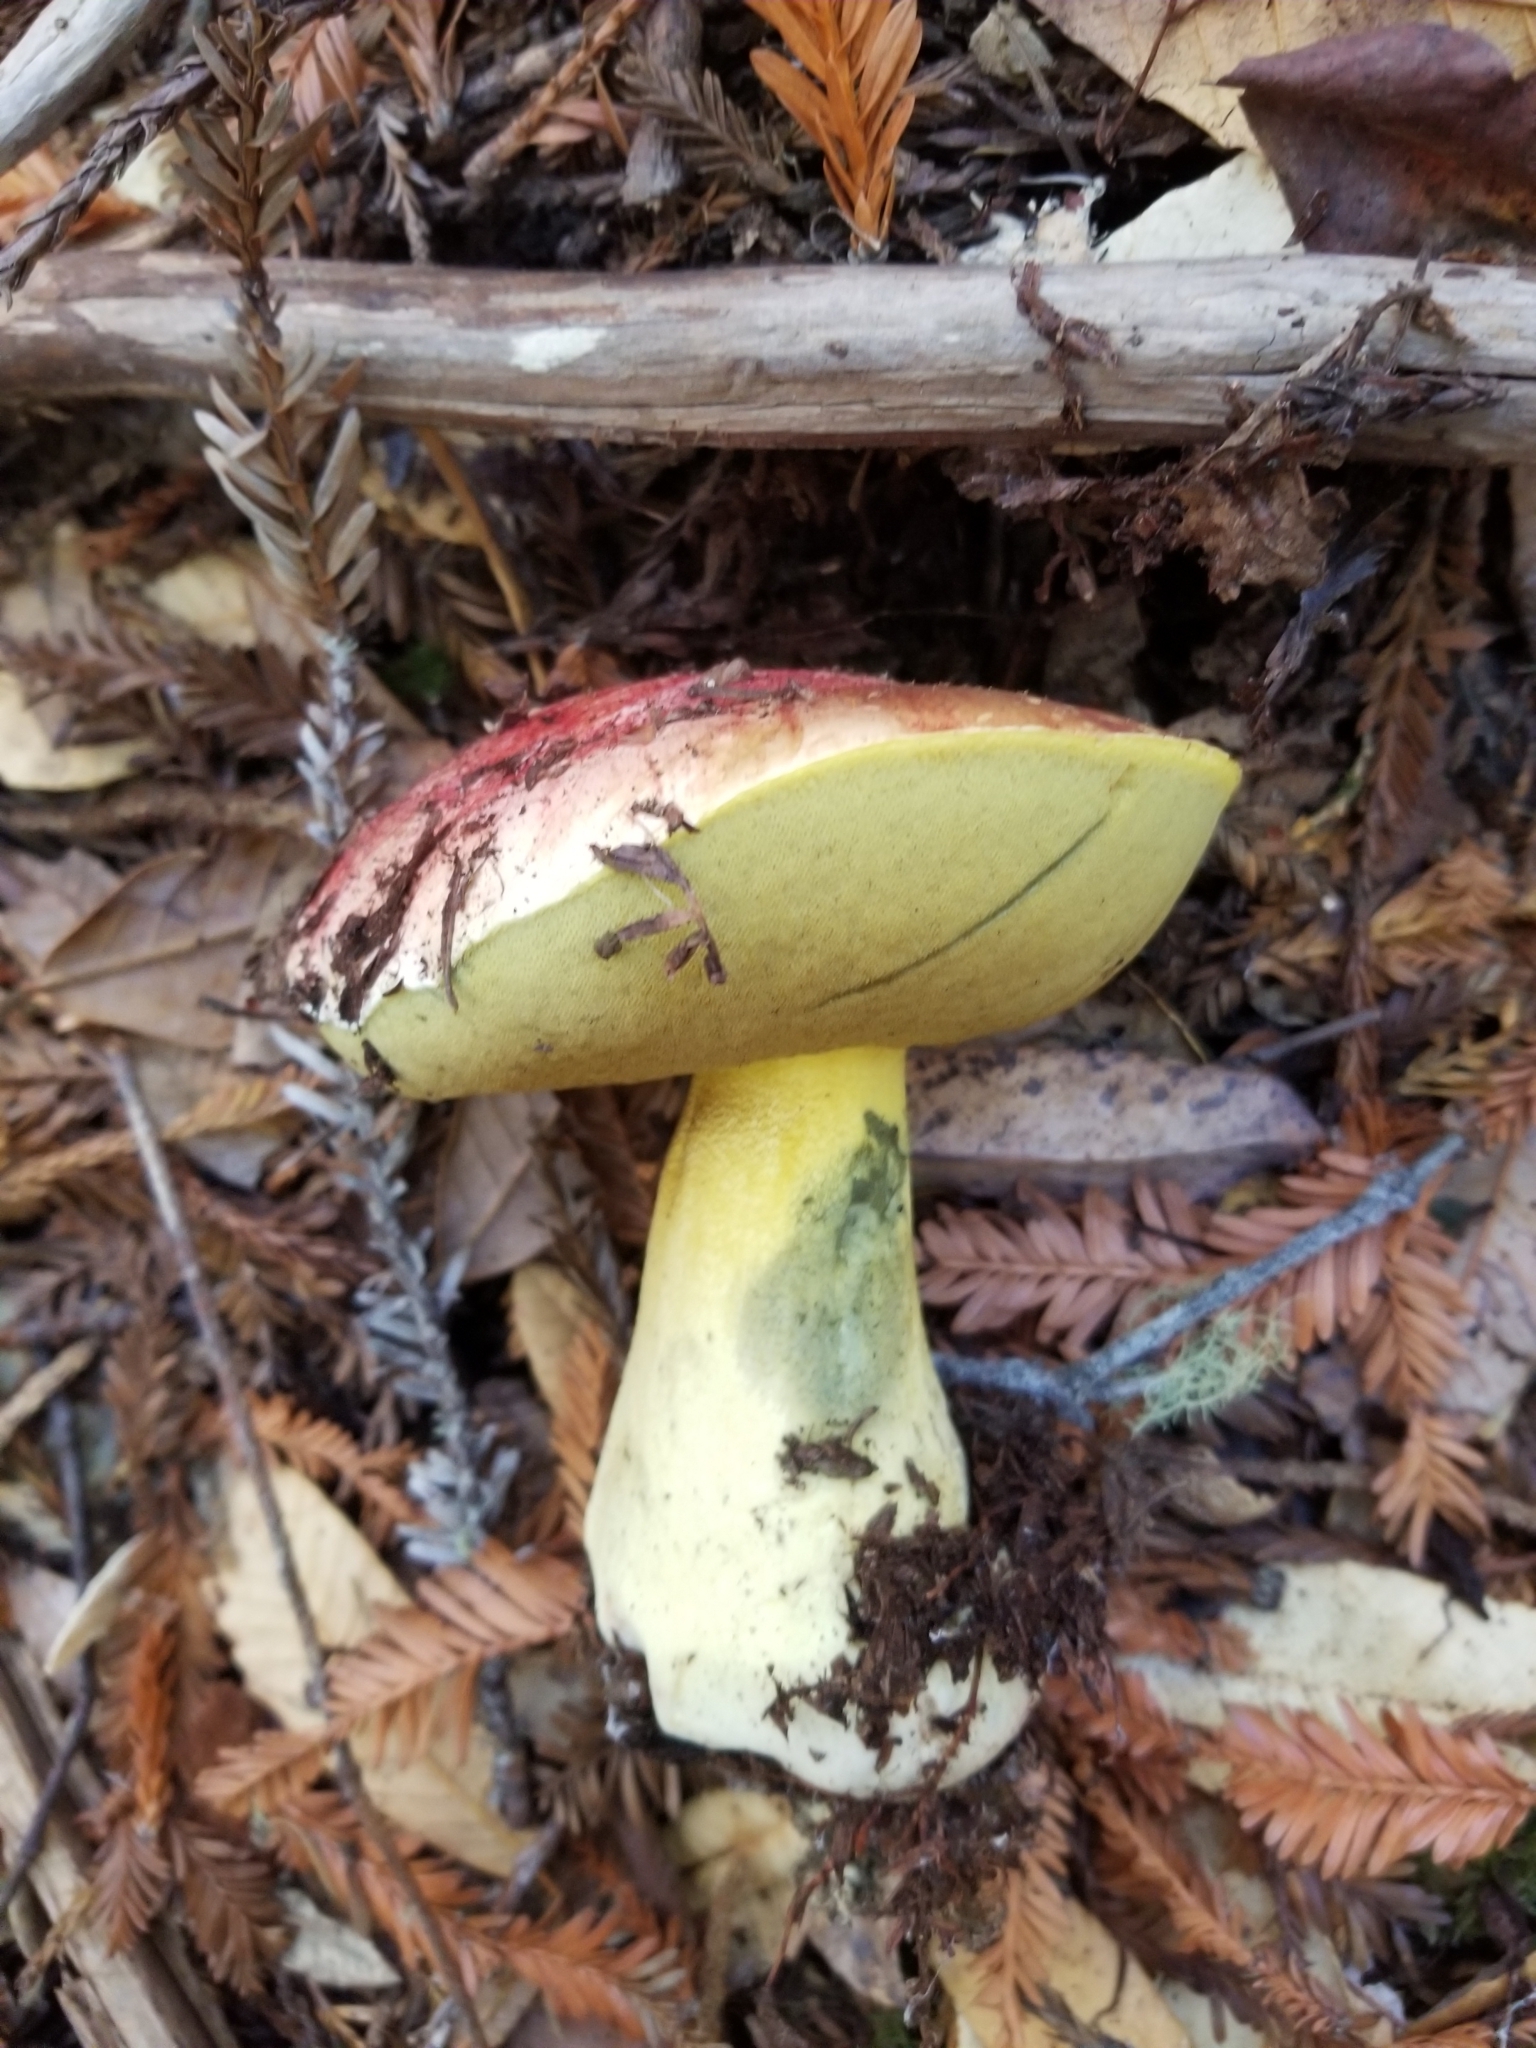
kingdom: Fungi
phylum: Basidiomycota
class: Agaricomycetes
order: Boletales
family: Boletaceae
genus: Butyriboletus
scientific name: Butyriboletus autumniregius
